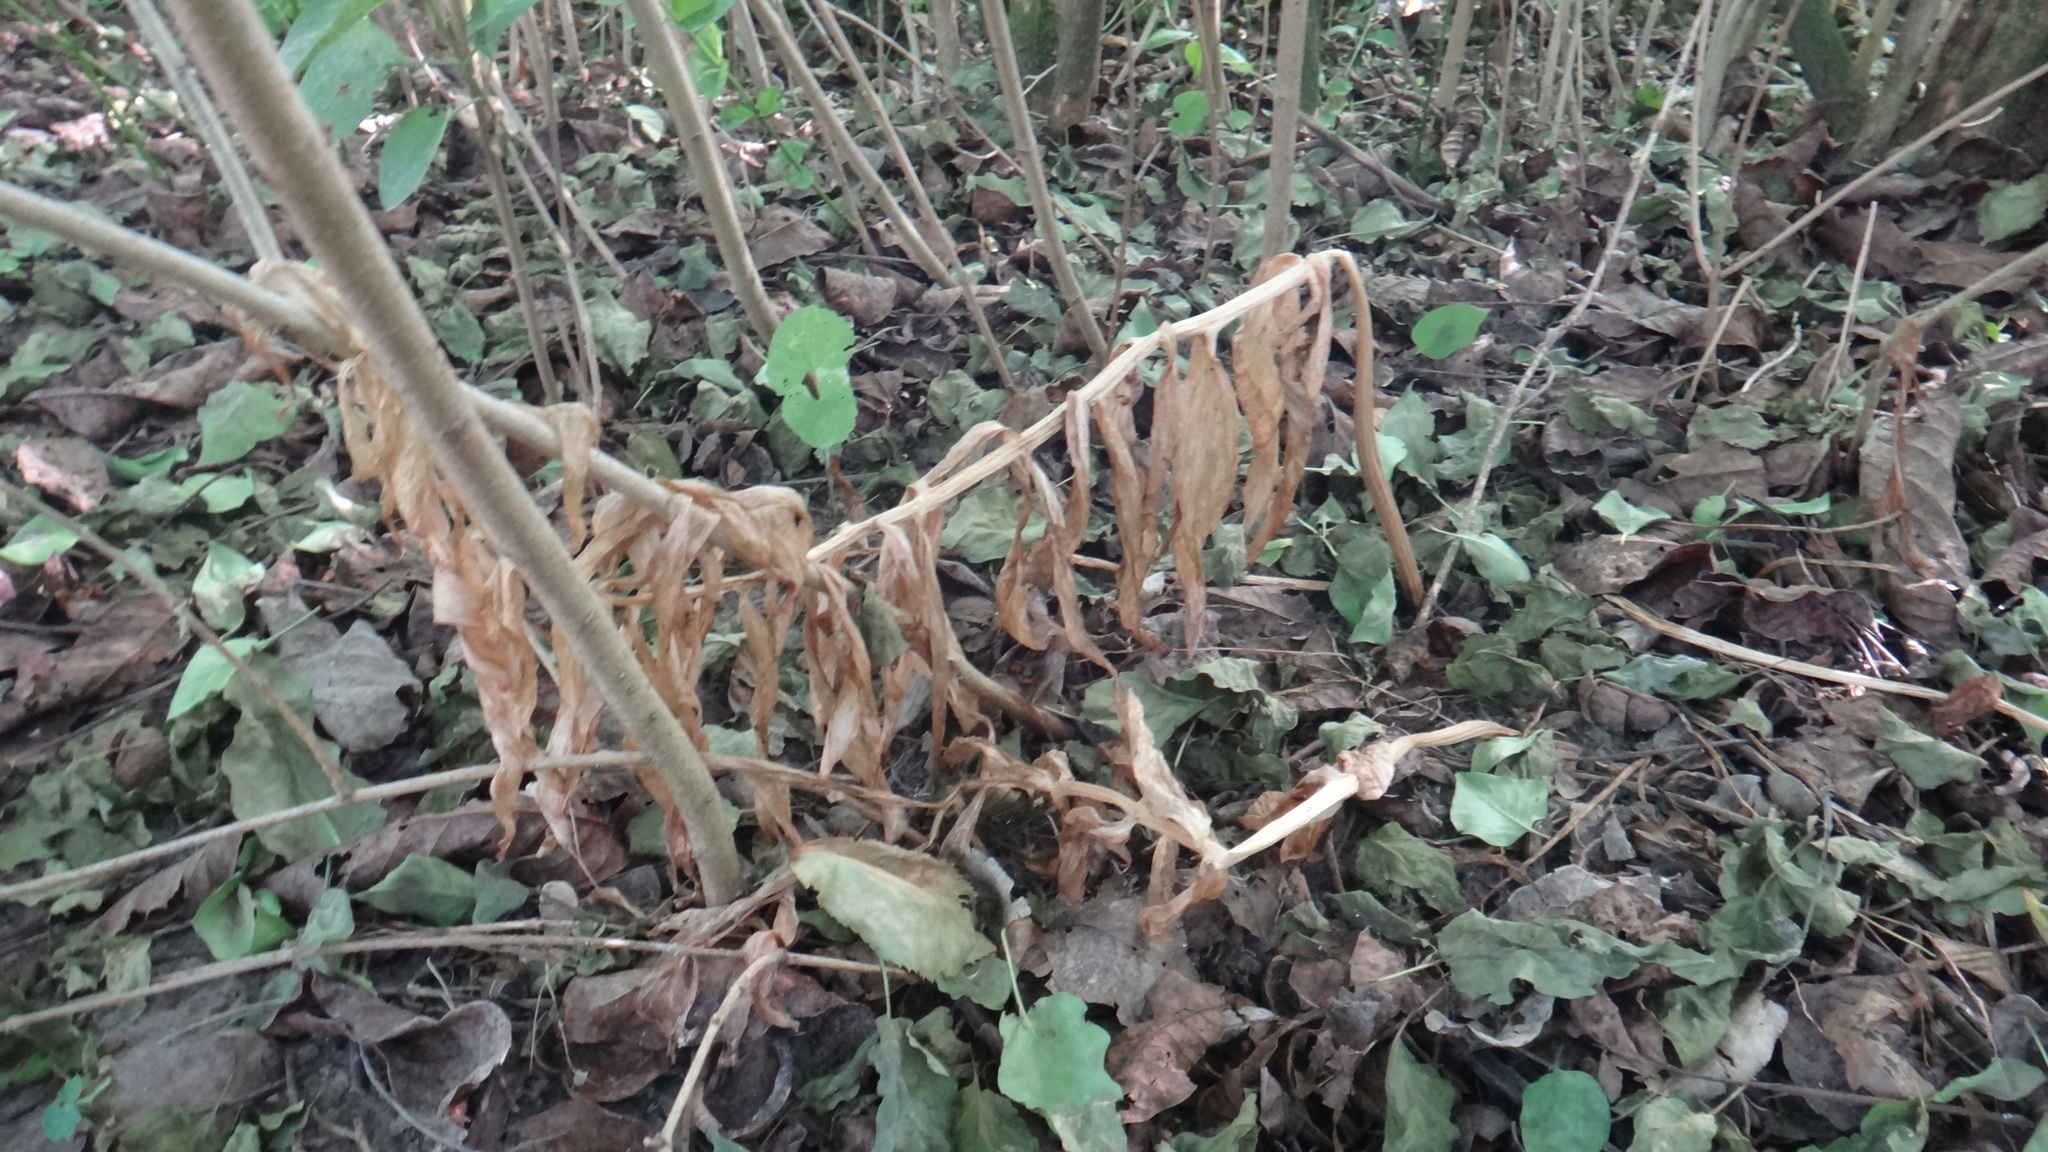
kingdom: Plantae
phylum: Tracheophyta
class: Liliopsida
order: Liliales
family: Liliaceae
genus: Fritillaria
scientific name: Fritillaria imperialis
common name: Imperial fritillary
